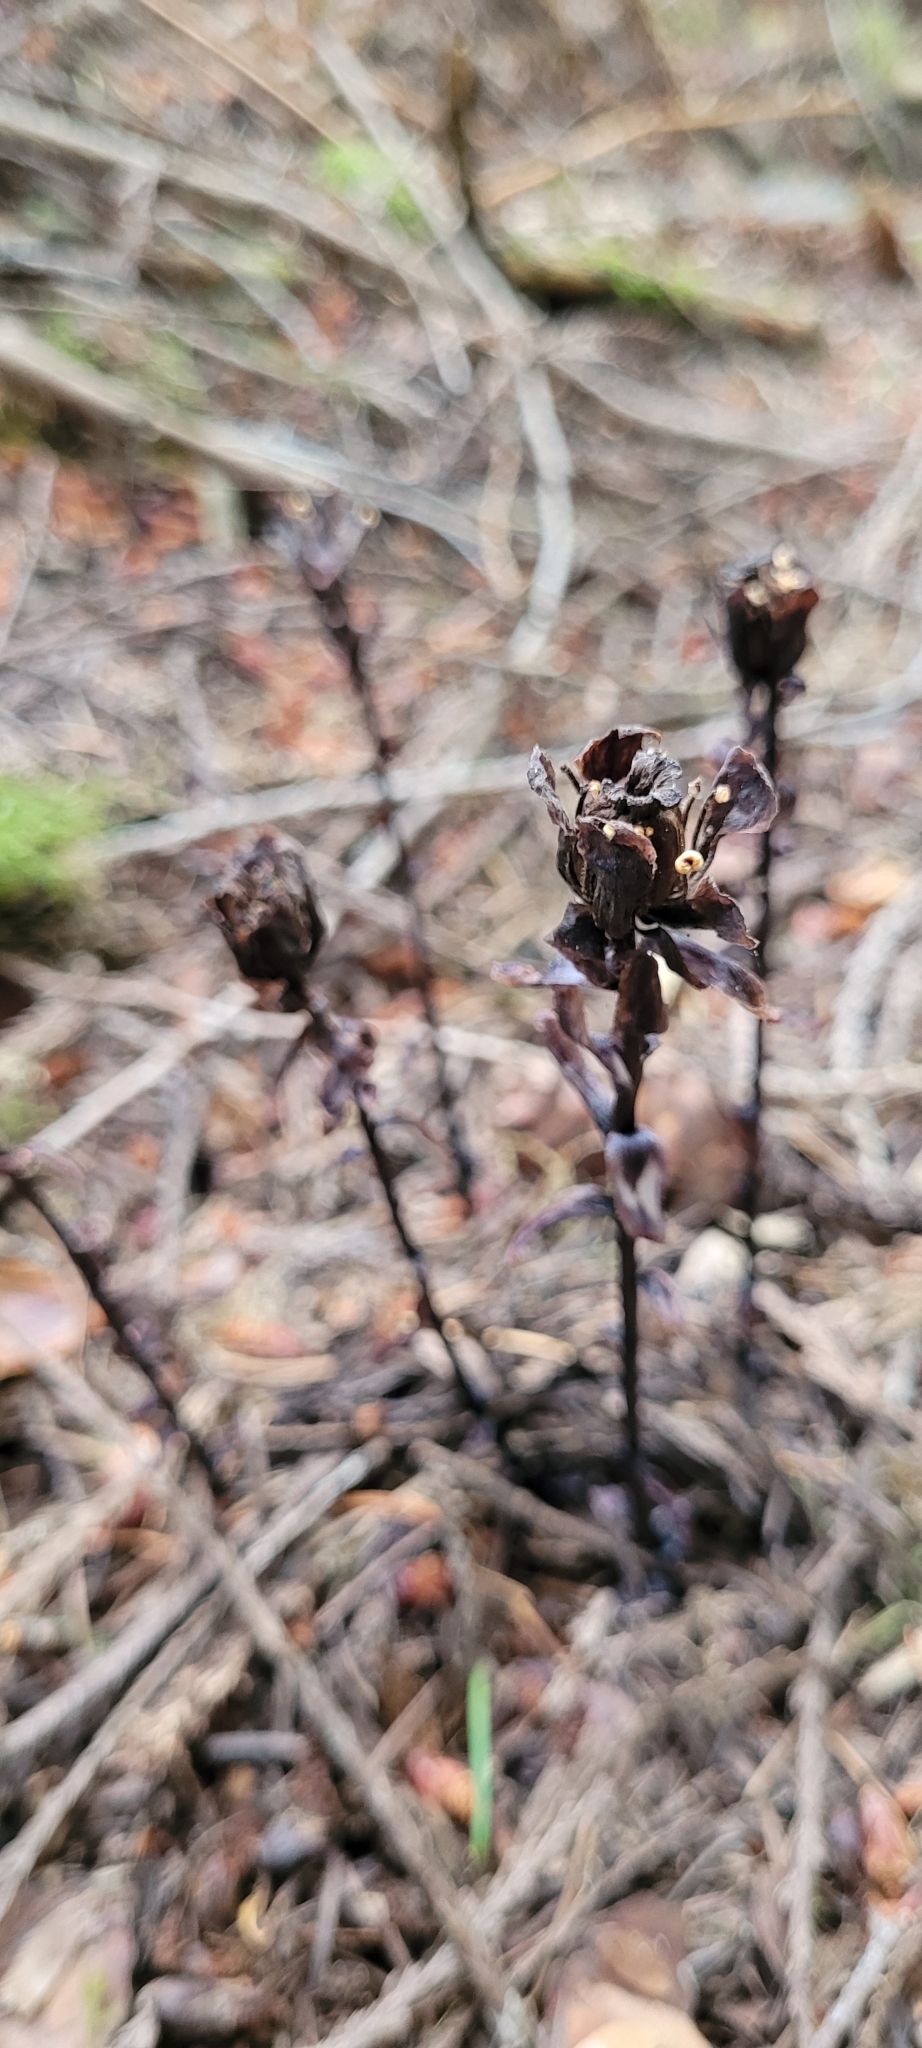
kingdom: Plantae
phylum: Tracheophyta
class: Magnoliopsida
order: Ericales
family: Ericaceae
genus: Monotropa
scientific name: Monotropa uniflora
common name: Convulsion root
